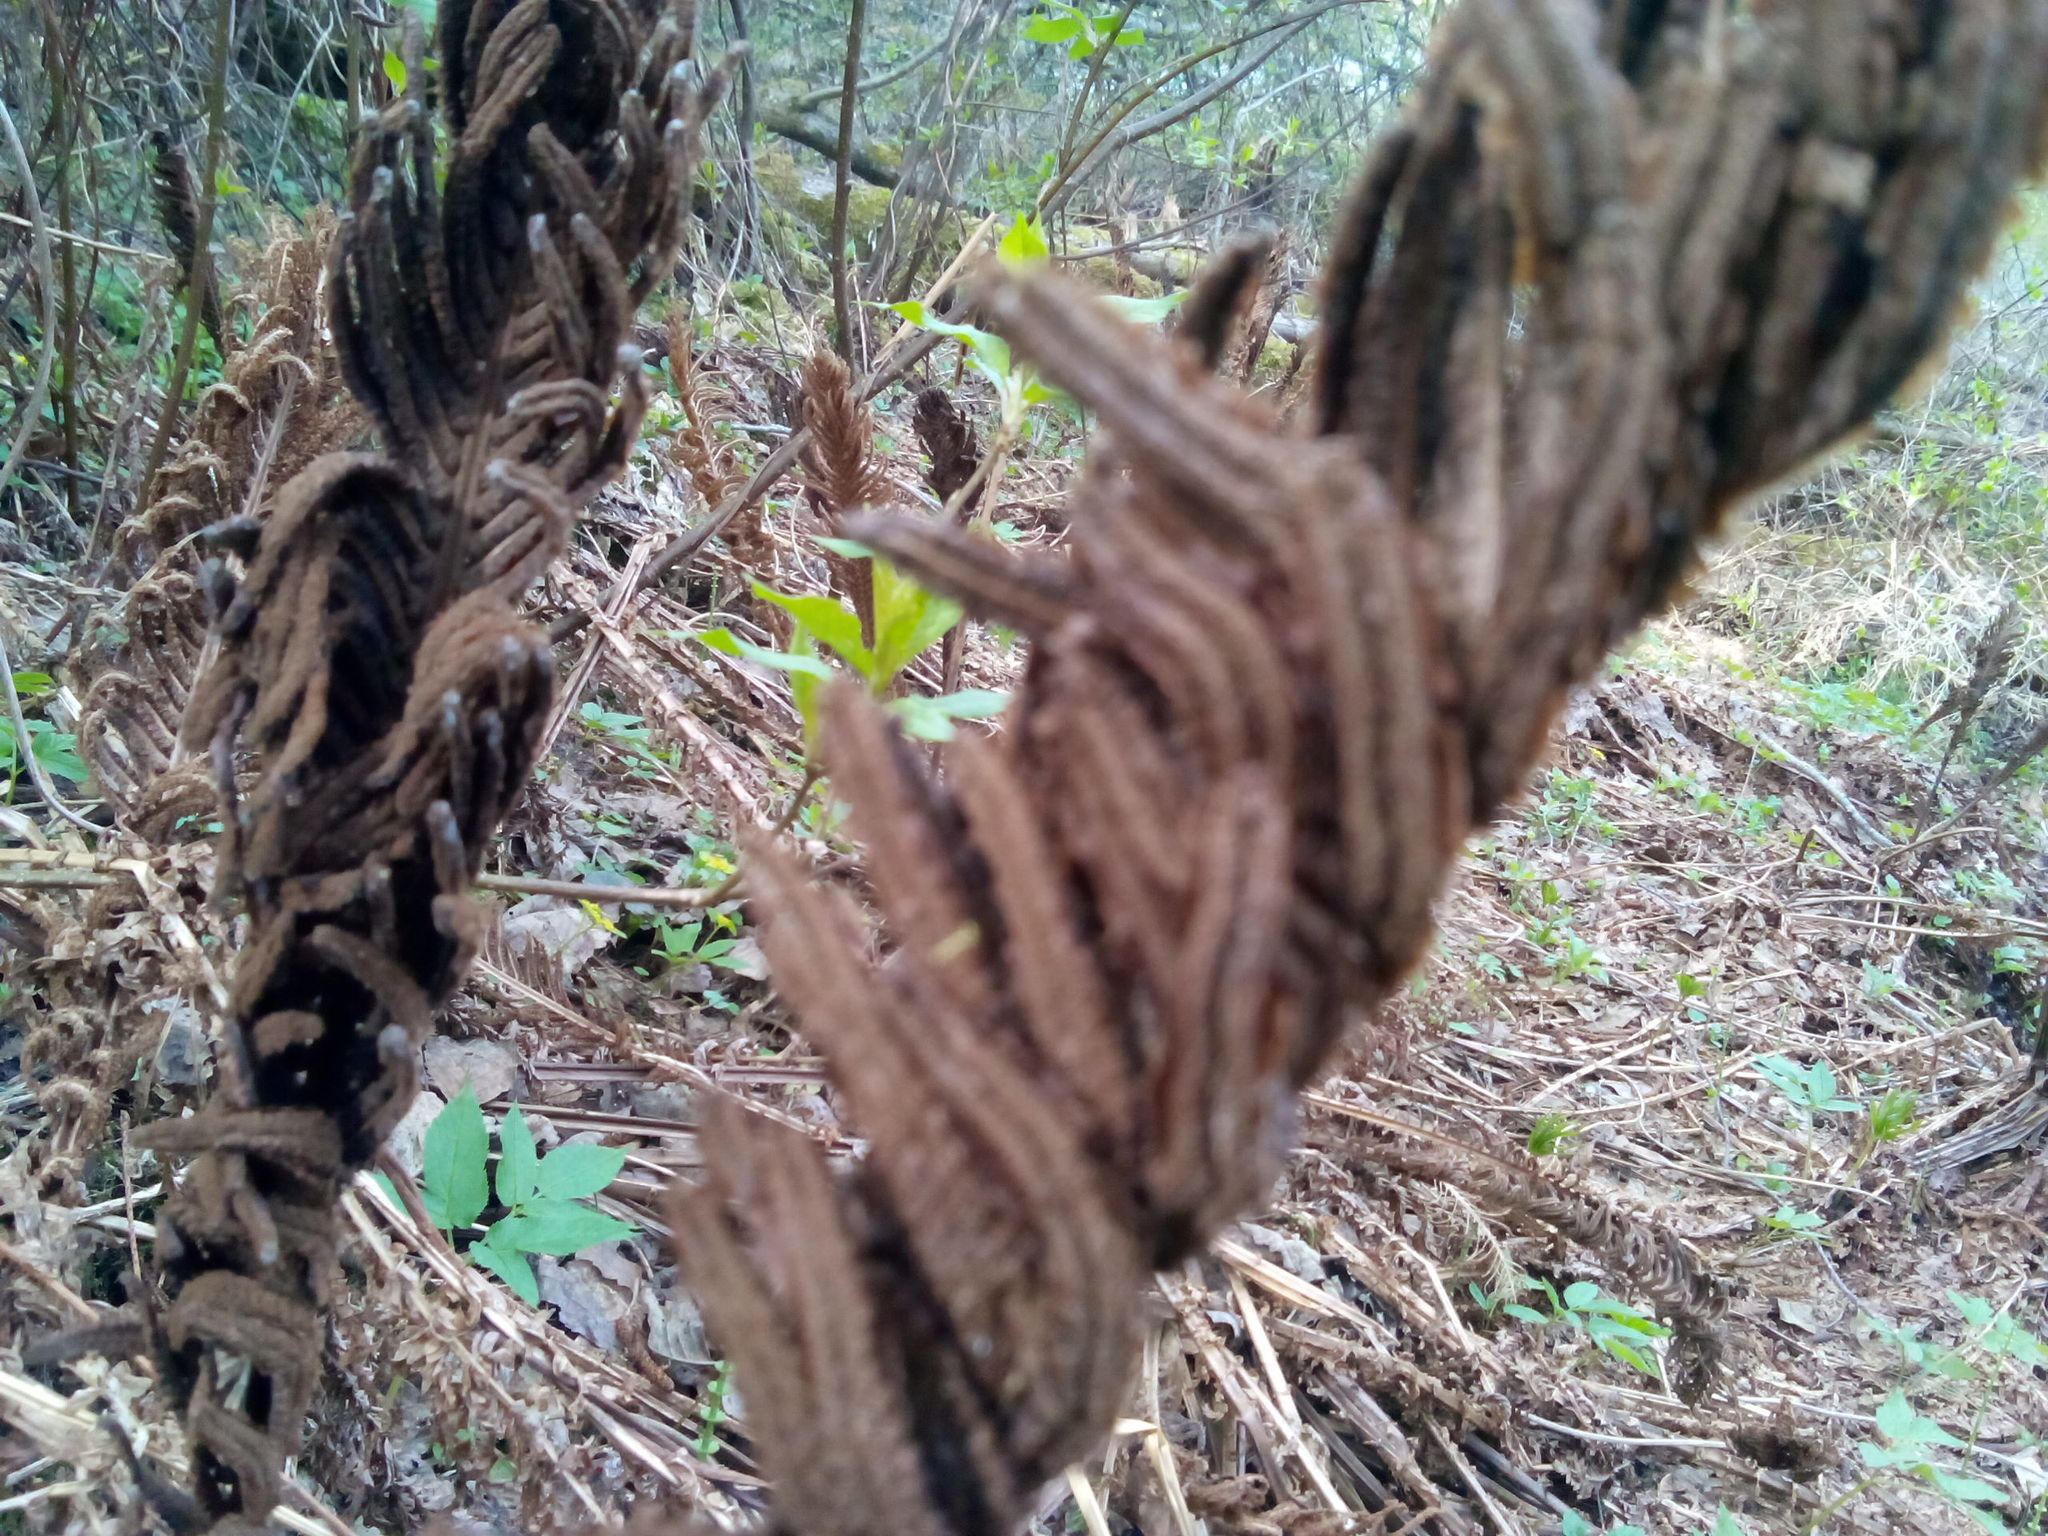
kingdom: Plantae
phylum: Tracheophyta
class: Polypodiopsida
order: Polypodiales
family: Onocleaceae
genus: Matteuccia
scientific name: Matteuccia struthiopteris
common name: Ostrich fern
